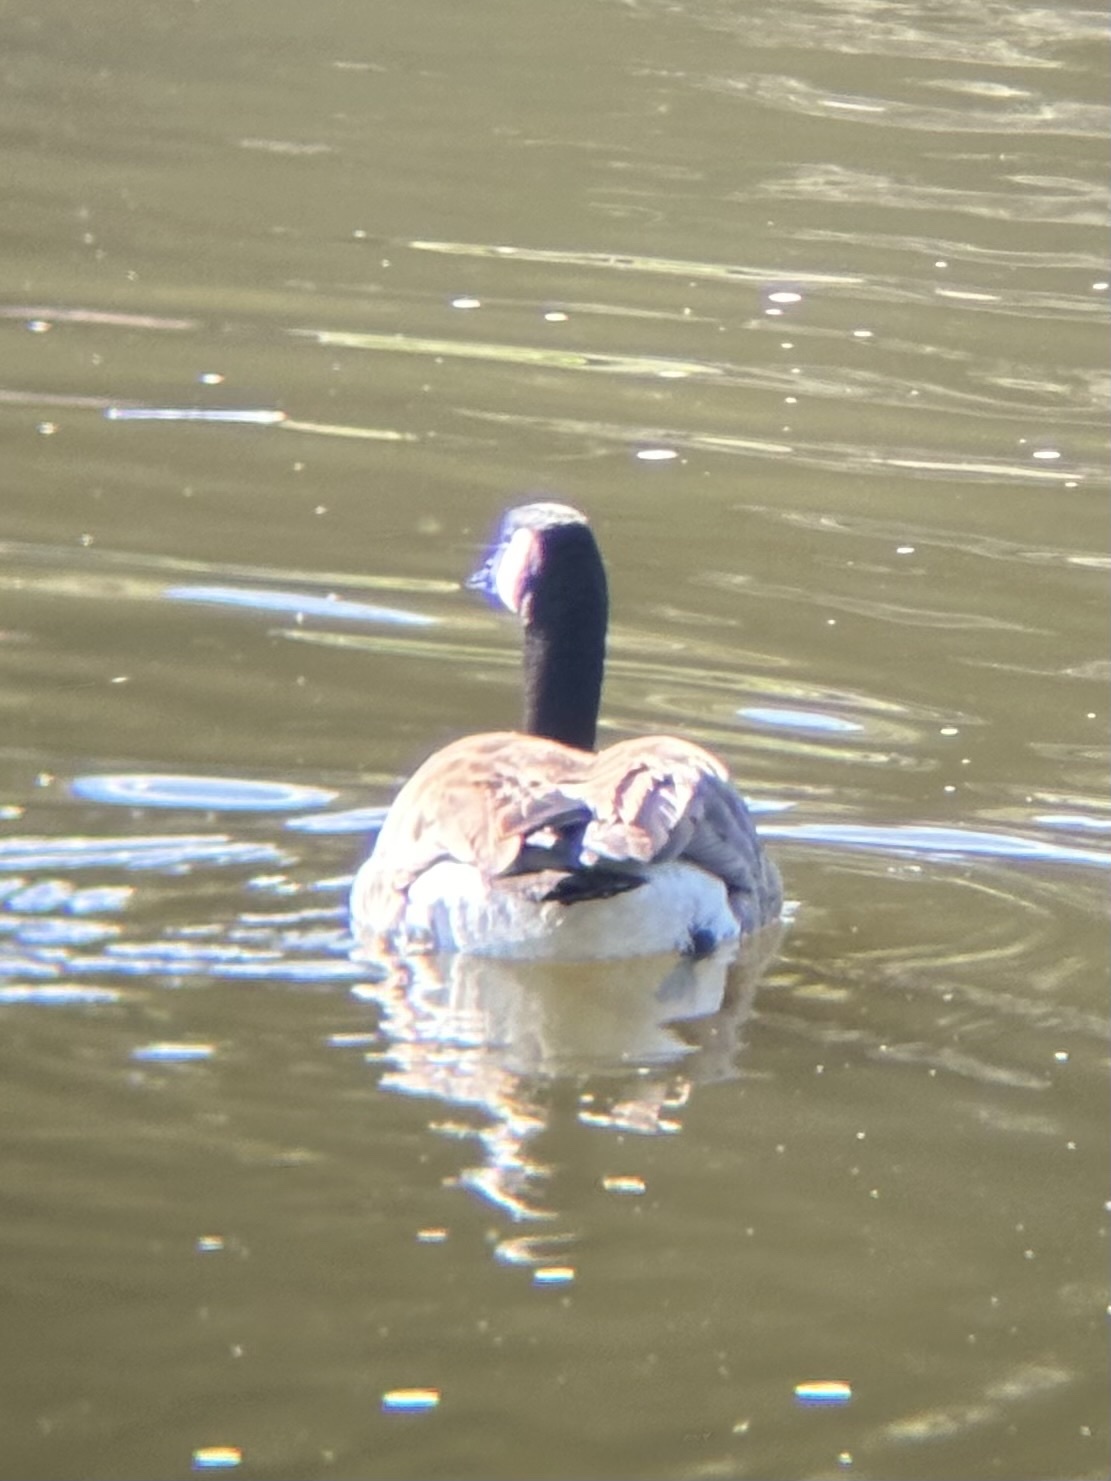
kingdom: Animalia
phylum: Chordata
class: Aves
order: Anseriformes
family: Anatidae
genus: Branta
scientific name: Branta canadensis
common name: Canada goose
